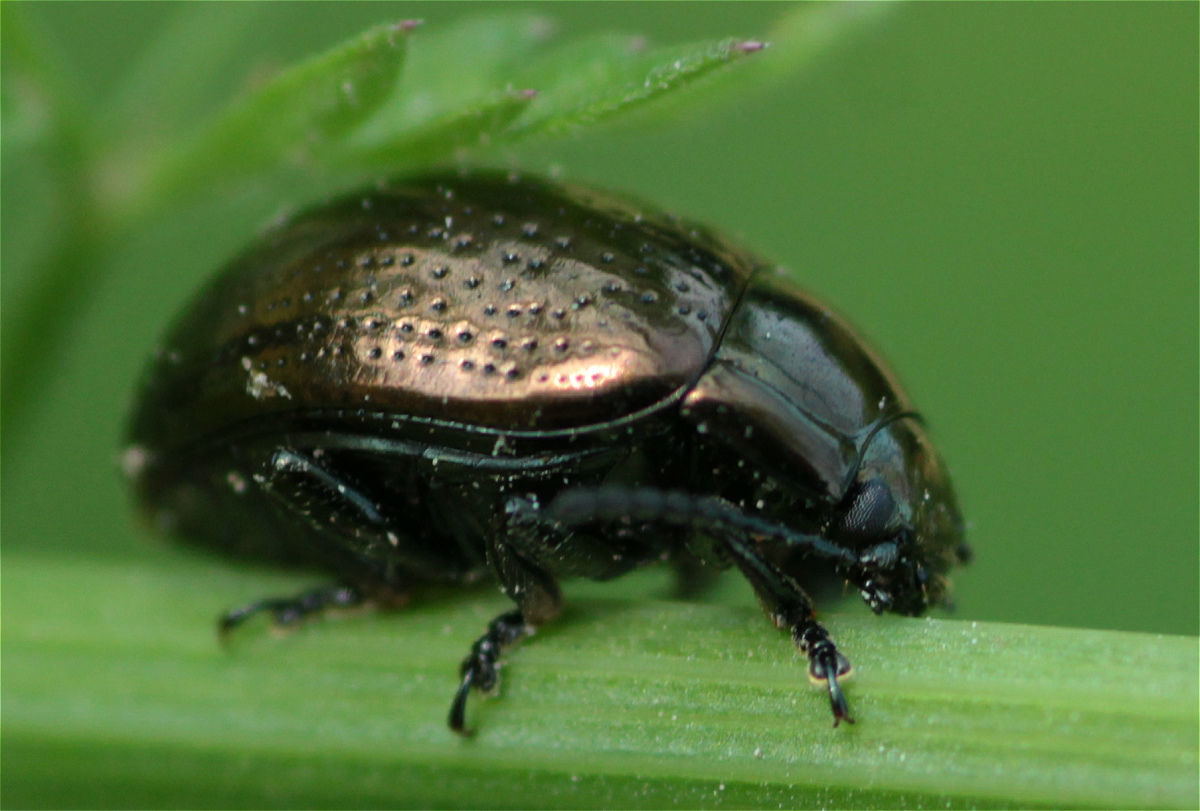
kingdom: Animalia
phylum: Arthropoda
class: Insecta
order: Coleoptera
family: Chrysomelidae
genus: Chrysolina
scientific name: Chrysolina oricalcia
